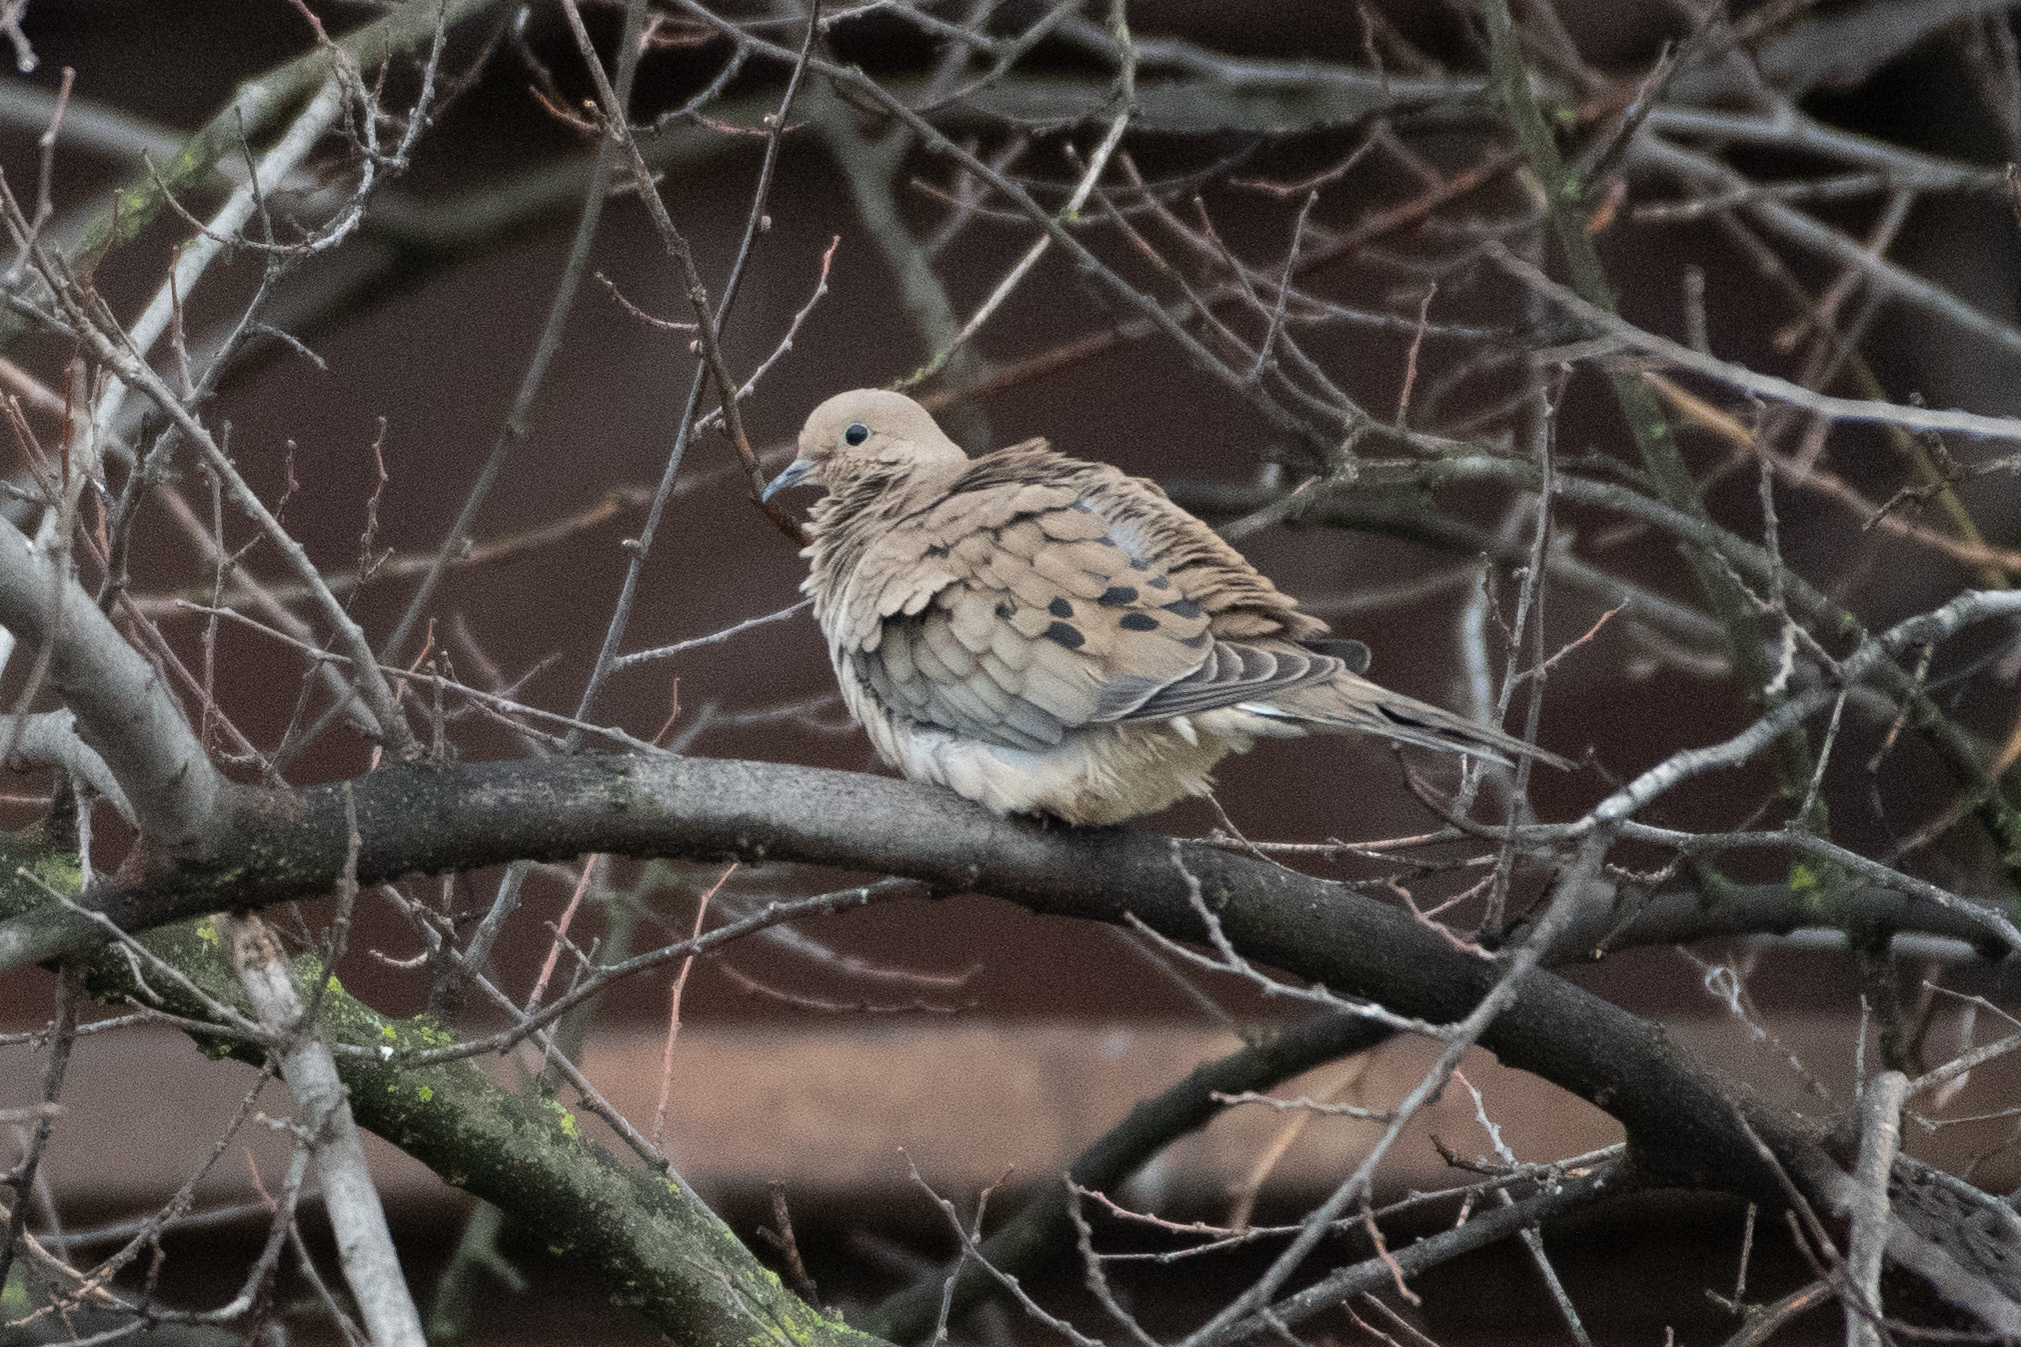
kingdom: Animalia
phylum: Chordata
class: Aves
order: Columbiformes
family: Columbidae
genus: Zenaida
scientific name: Zenaida macroura
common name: Mourning dove
